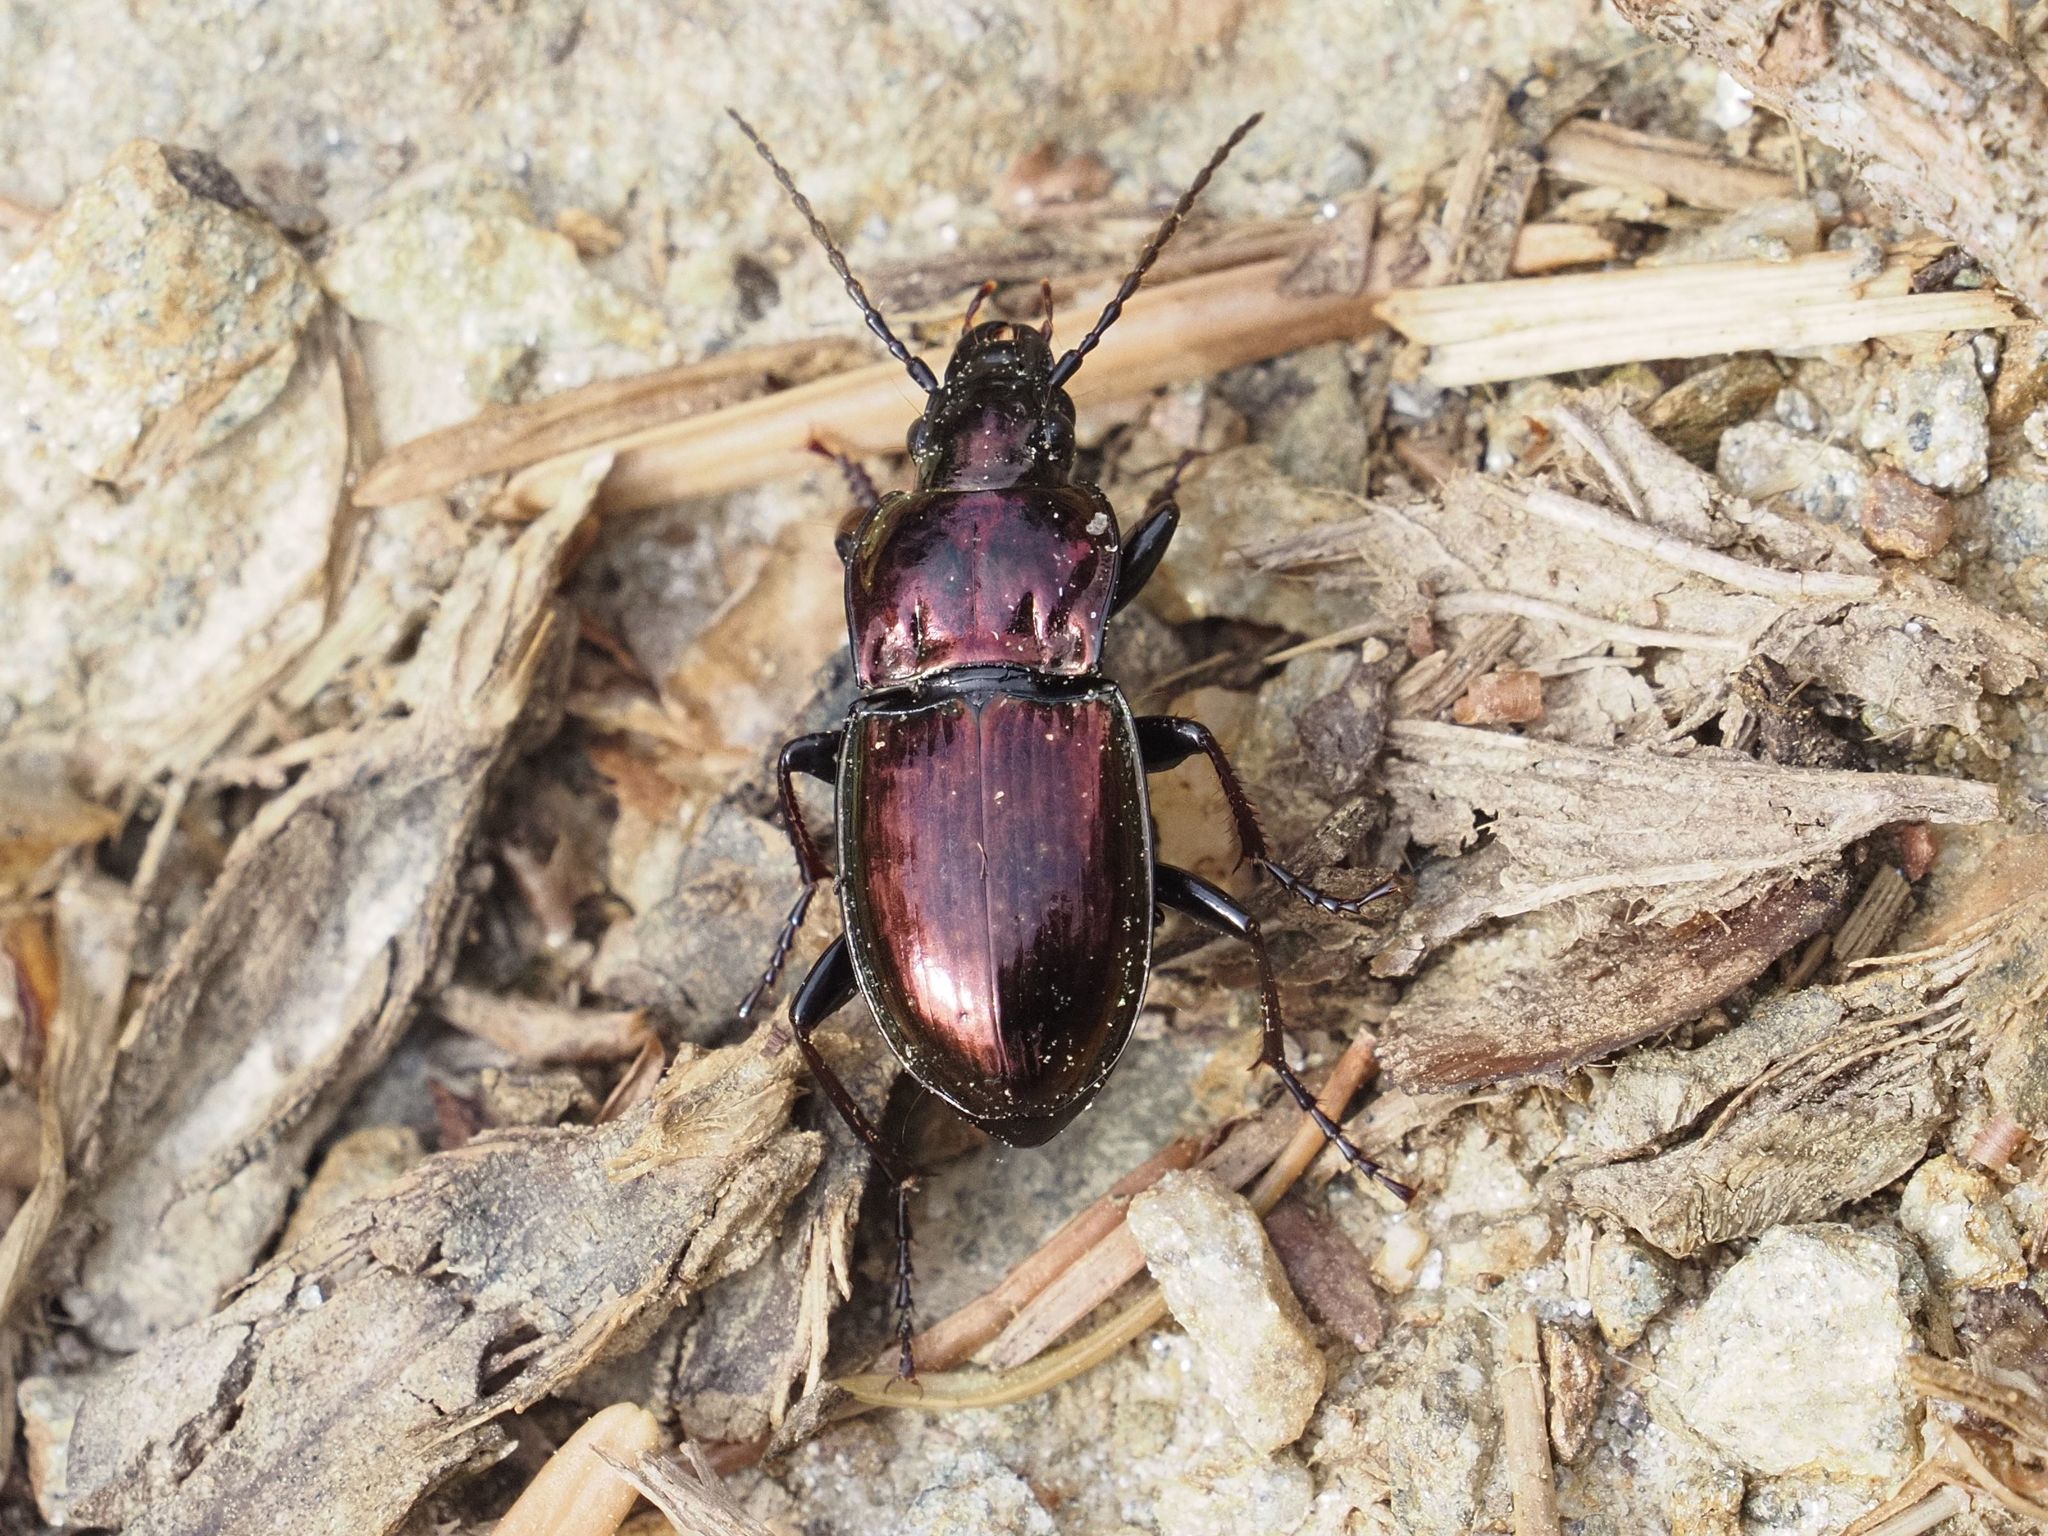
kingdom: Animalia
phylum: Arthropoda
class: Insecta
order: Coleoptera
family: Carabidae
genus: Pterostichus
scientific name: Pterostichus burmeisteri
